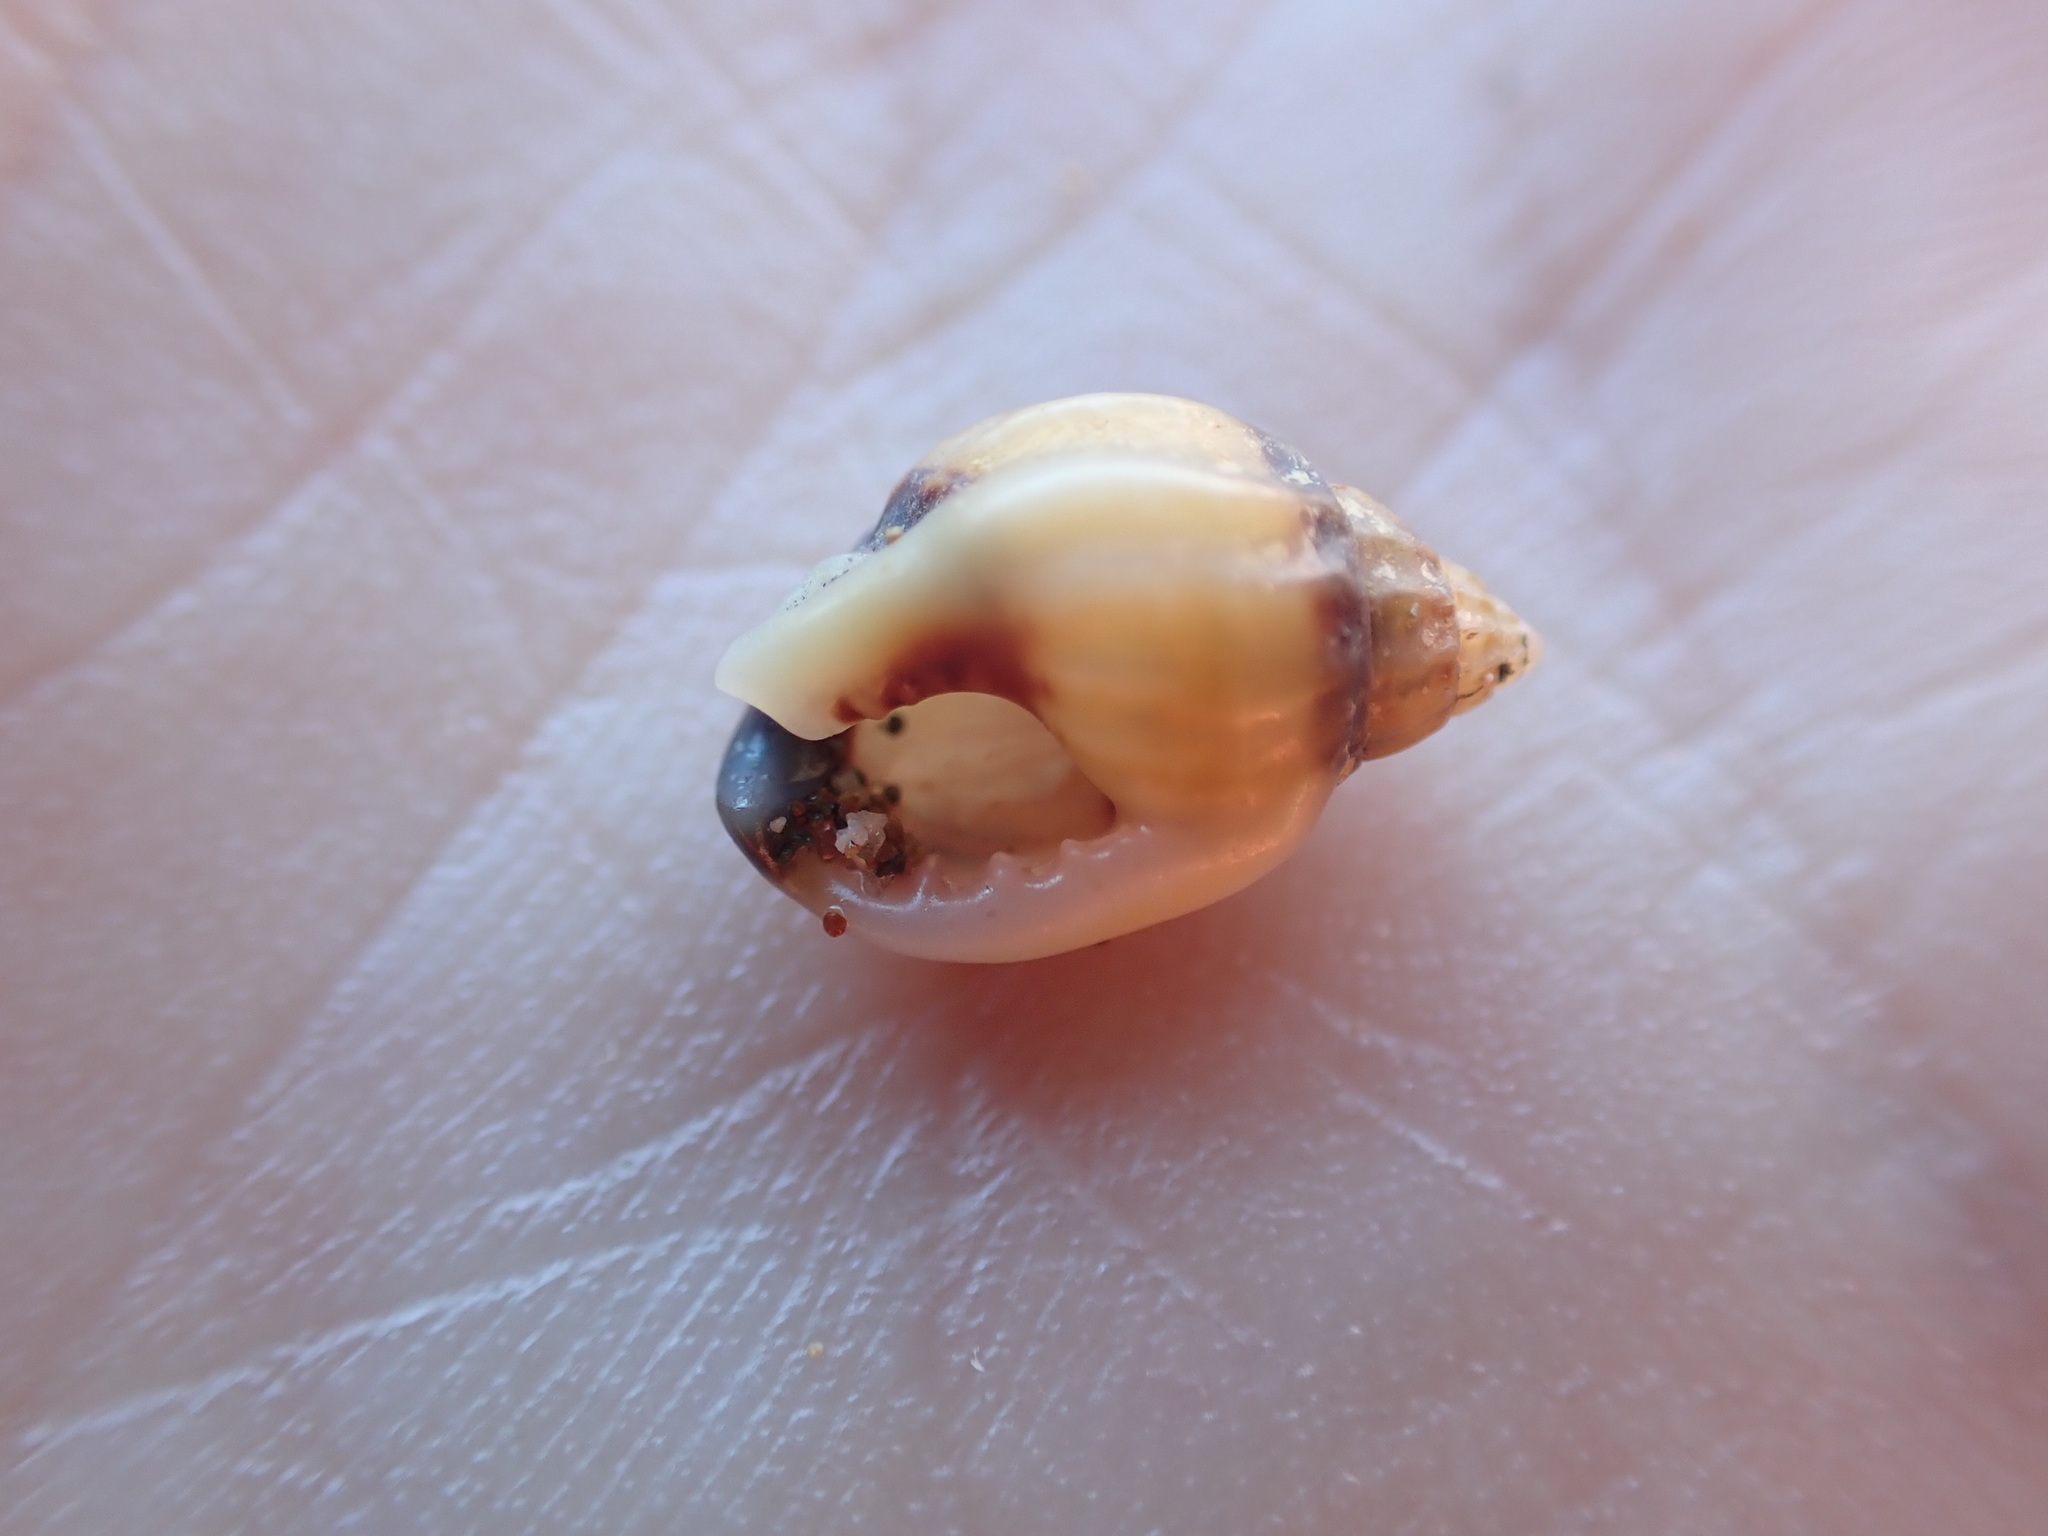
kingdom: Animalia
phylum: Mollusca
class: Gastropoda
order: Neogastropoda
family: Nassariidae
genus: Tritia
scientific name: Tritia burchardi
